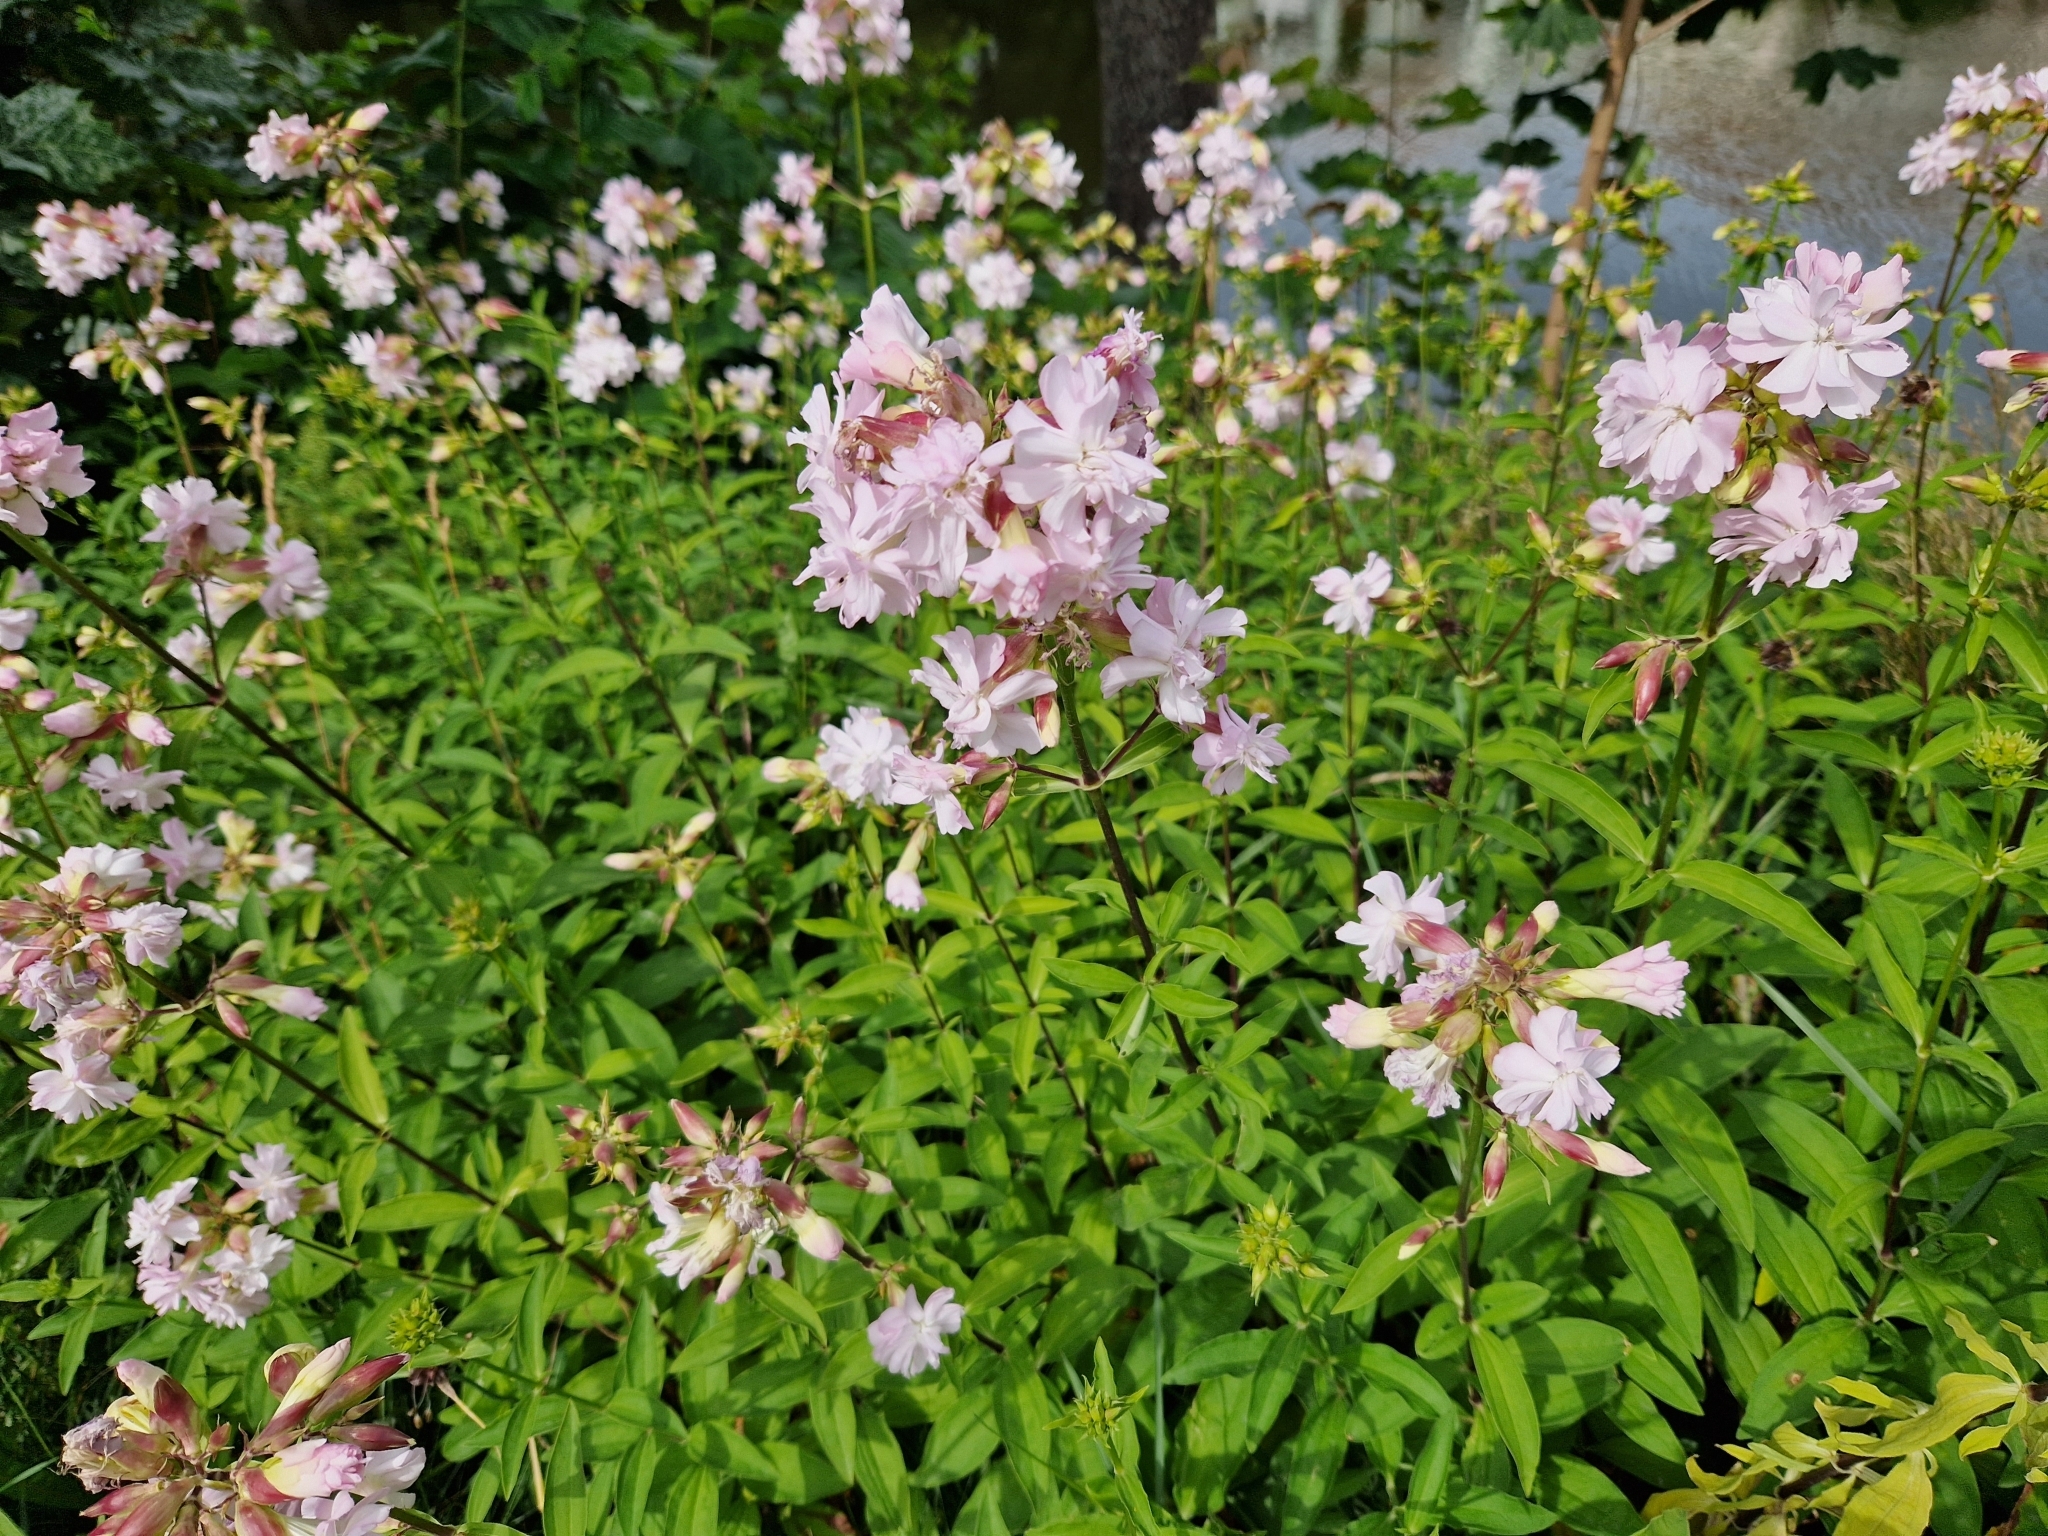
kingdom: Plantae
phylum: Tracheophyta
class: Magnoliopsida
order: Caryophyllales
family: Caryophyllaceae
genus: Saponaria
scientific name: Saponaria officinalis
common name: Soapwort
